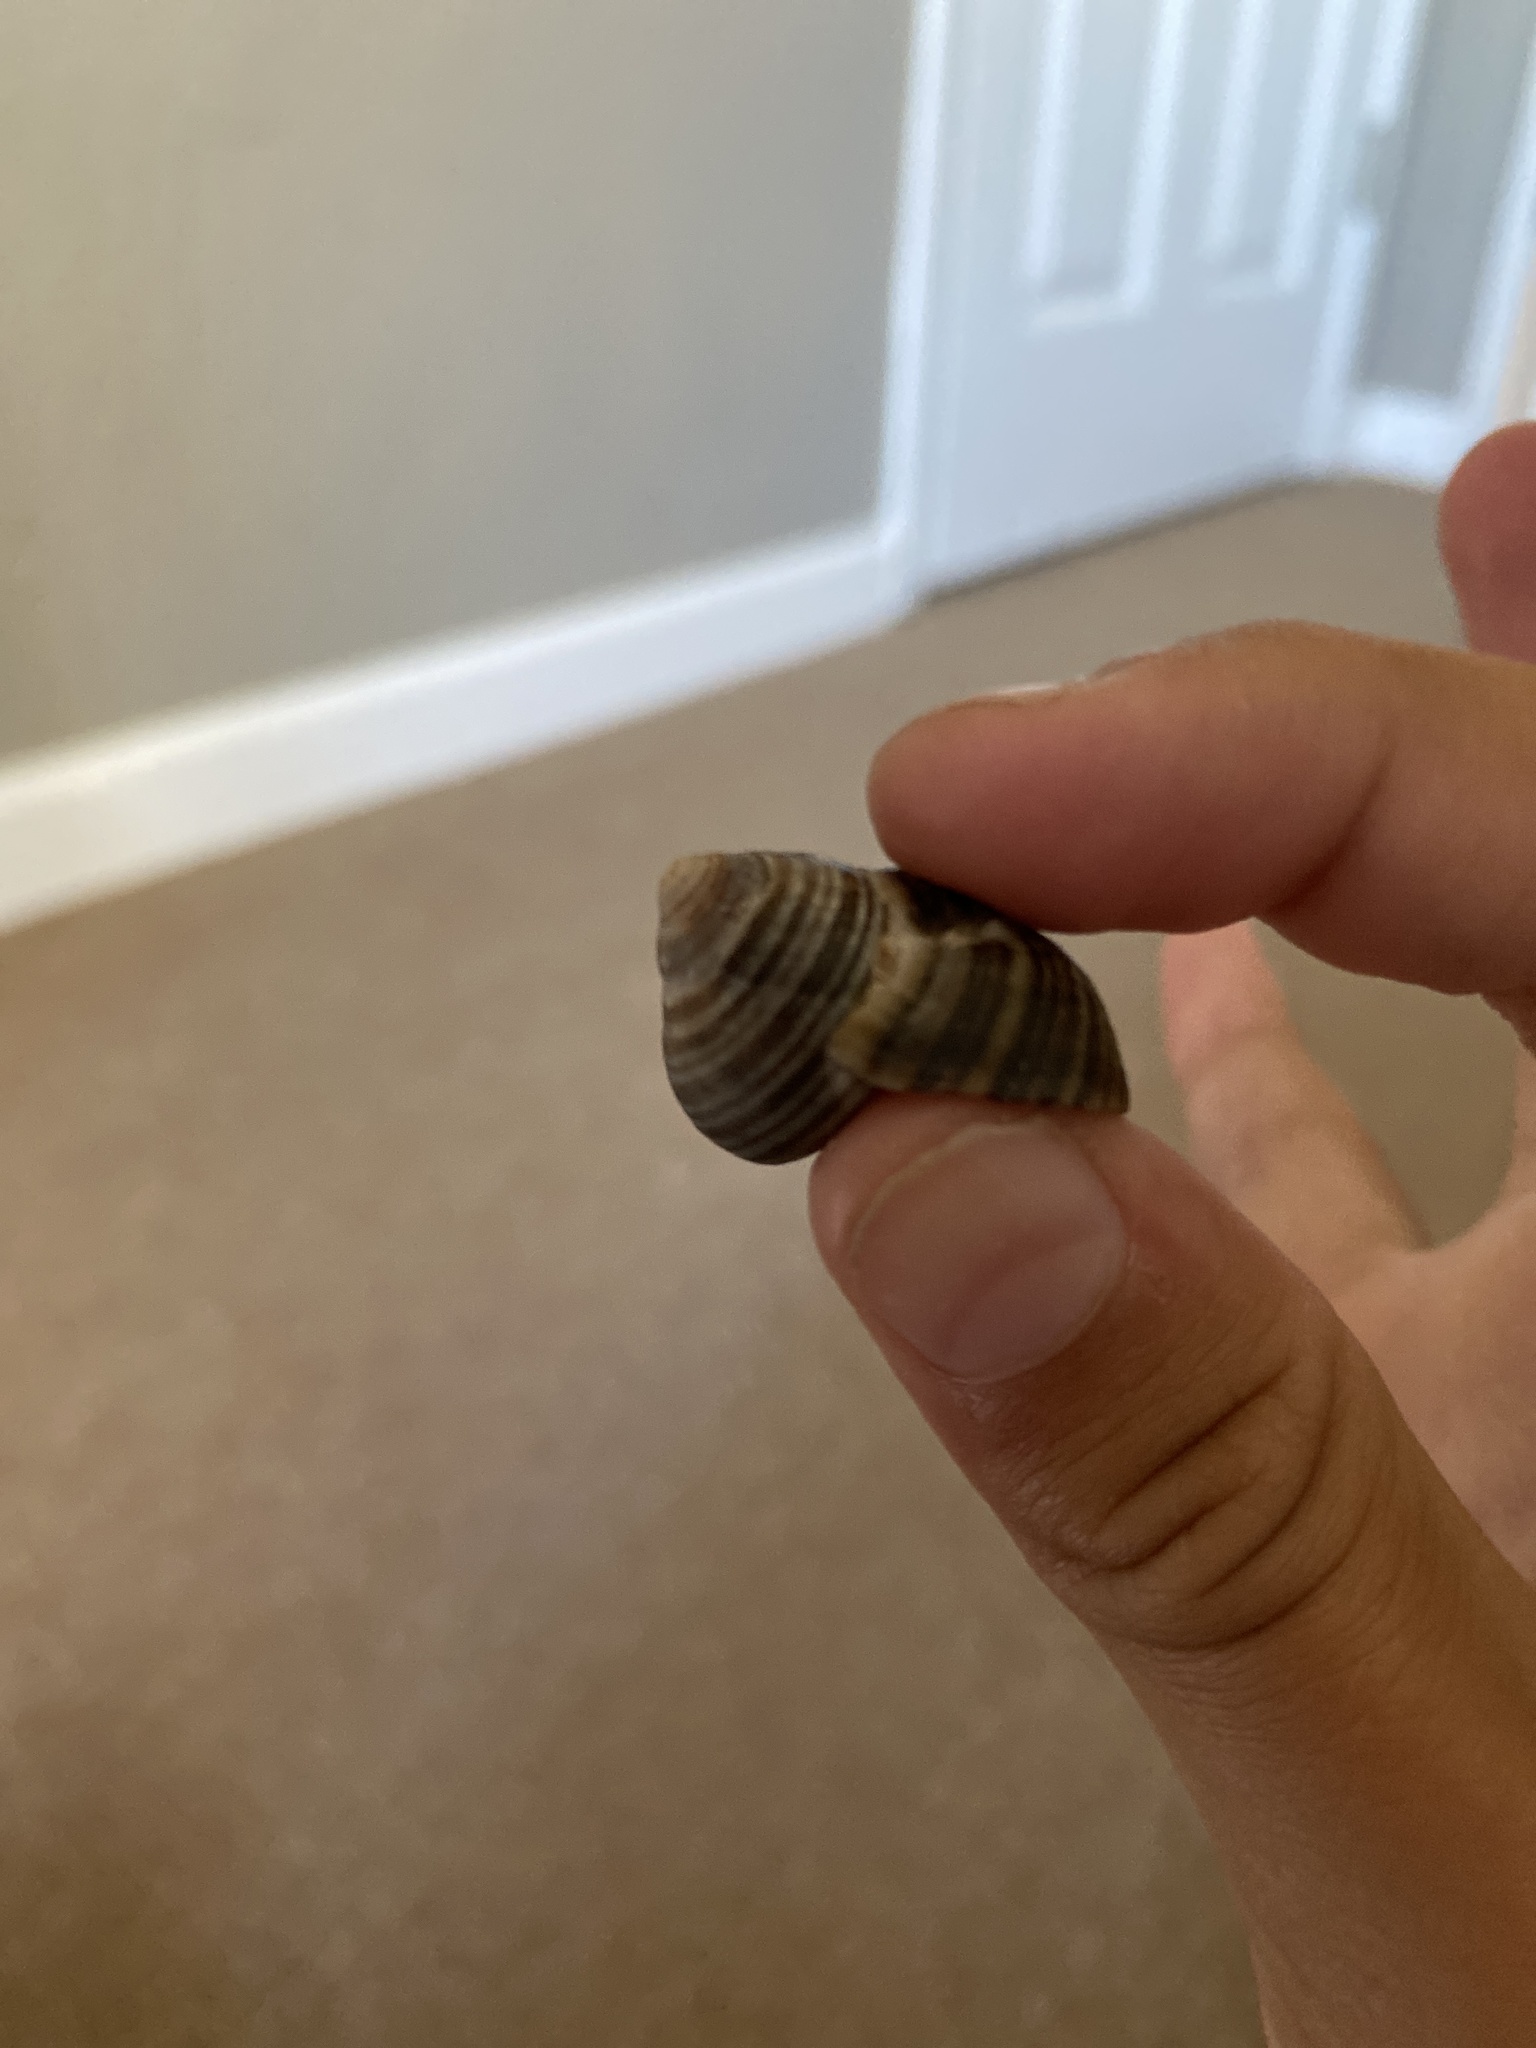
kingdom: Animalia
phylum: Mollusca
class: Gastropoda
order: Littorinimorpha
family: Littorinidae
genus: Littorina
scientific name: Littorina littorea
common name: Common periwinkle
